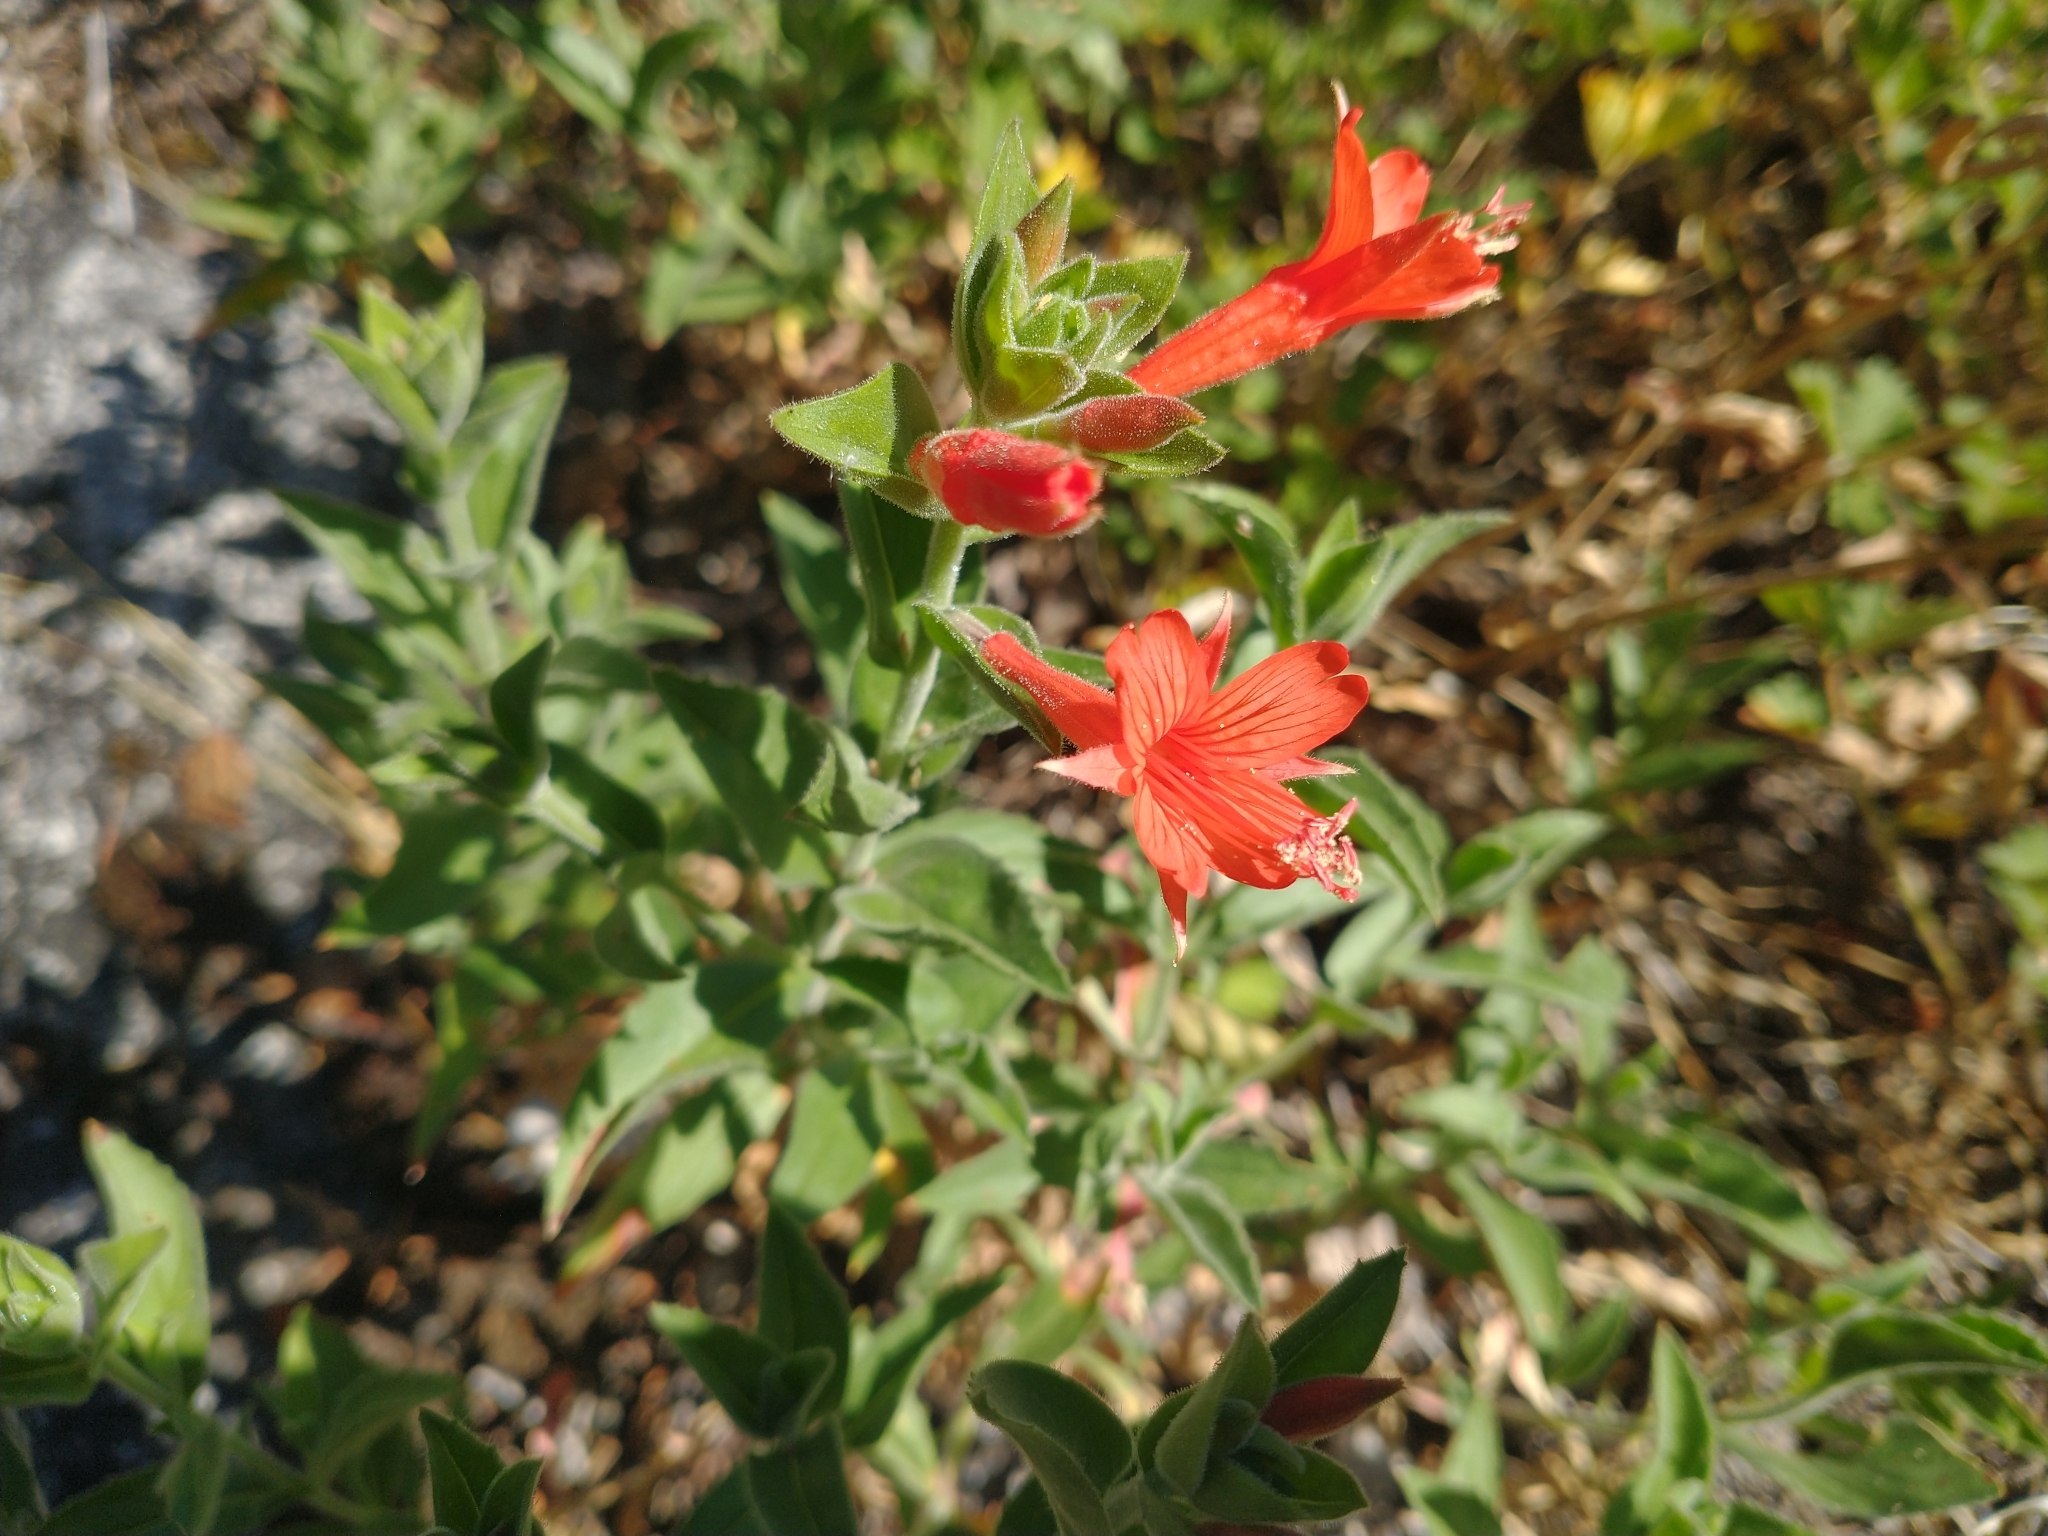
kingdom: Plantae
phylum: Tracheophyta
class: Magnoliopsida
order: Myrtales
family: Onagraceae
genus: Epilobium
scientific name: Epilobium canum
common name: California-fuchsia
